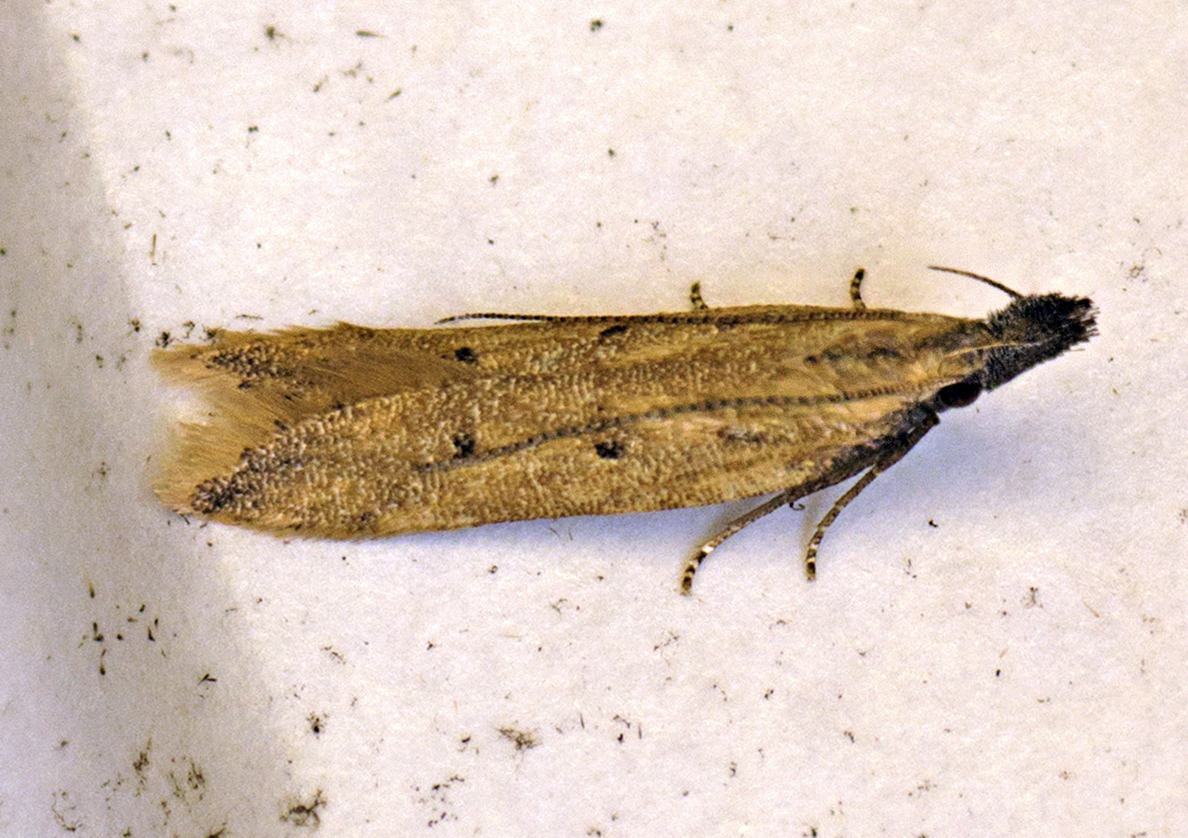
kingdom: Animalia
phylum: Arthropoda
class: Insecta
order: Lepidoptera
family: Gelechiidae
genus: Dichomeris
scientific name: Dichomeris acuminatus
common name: Alfalfa leaf tier
